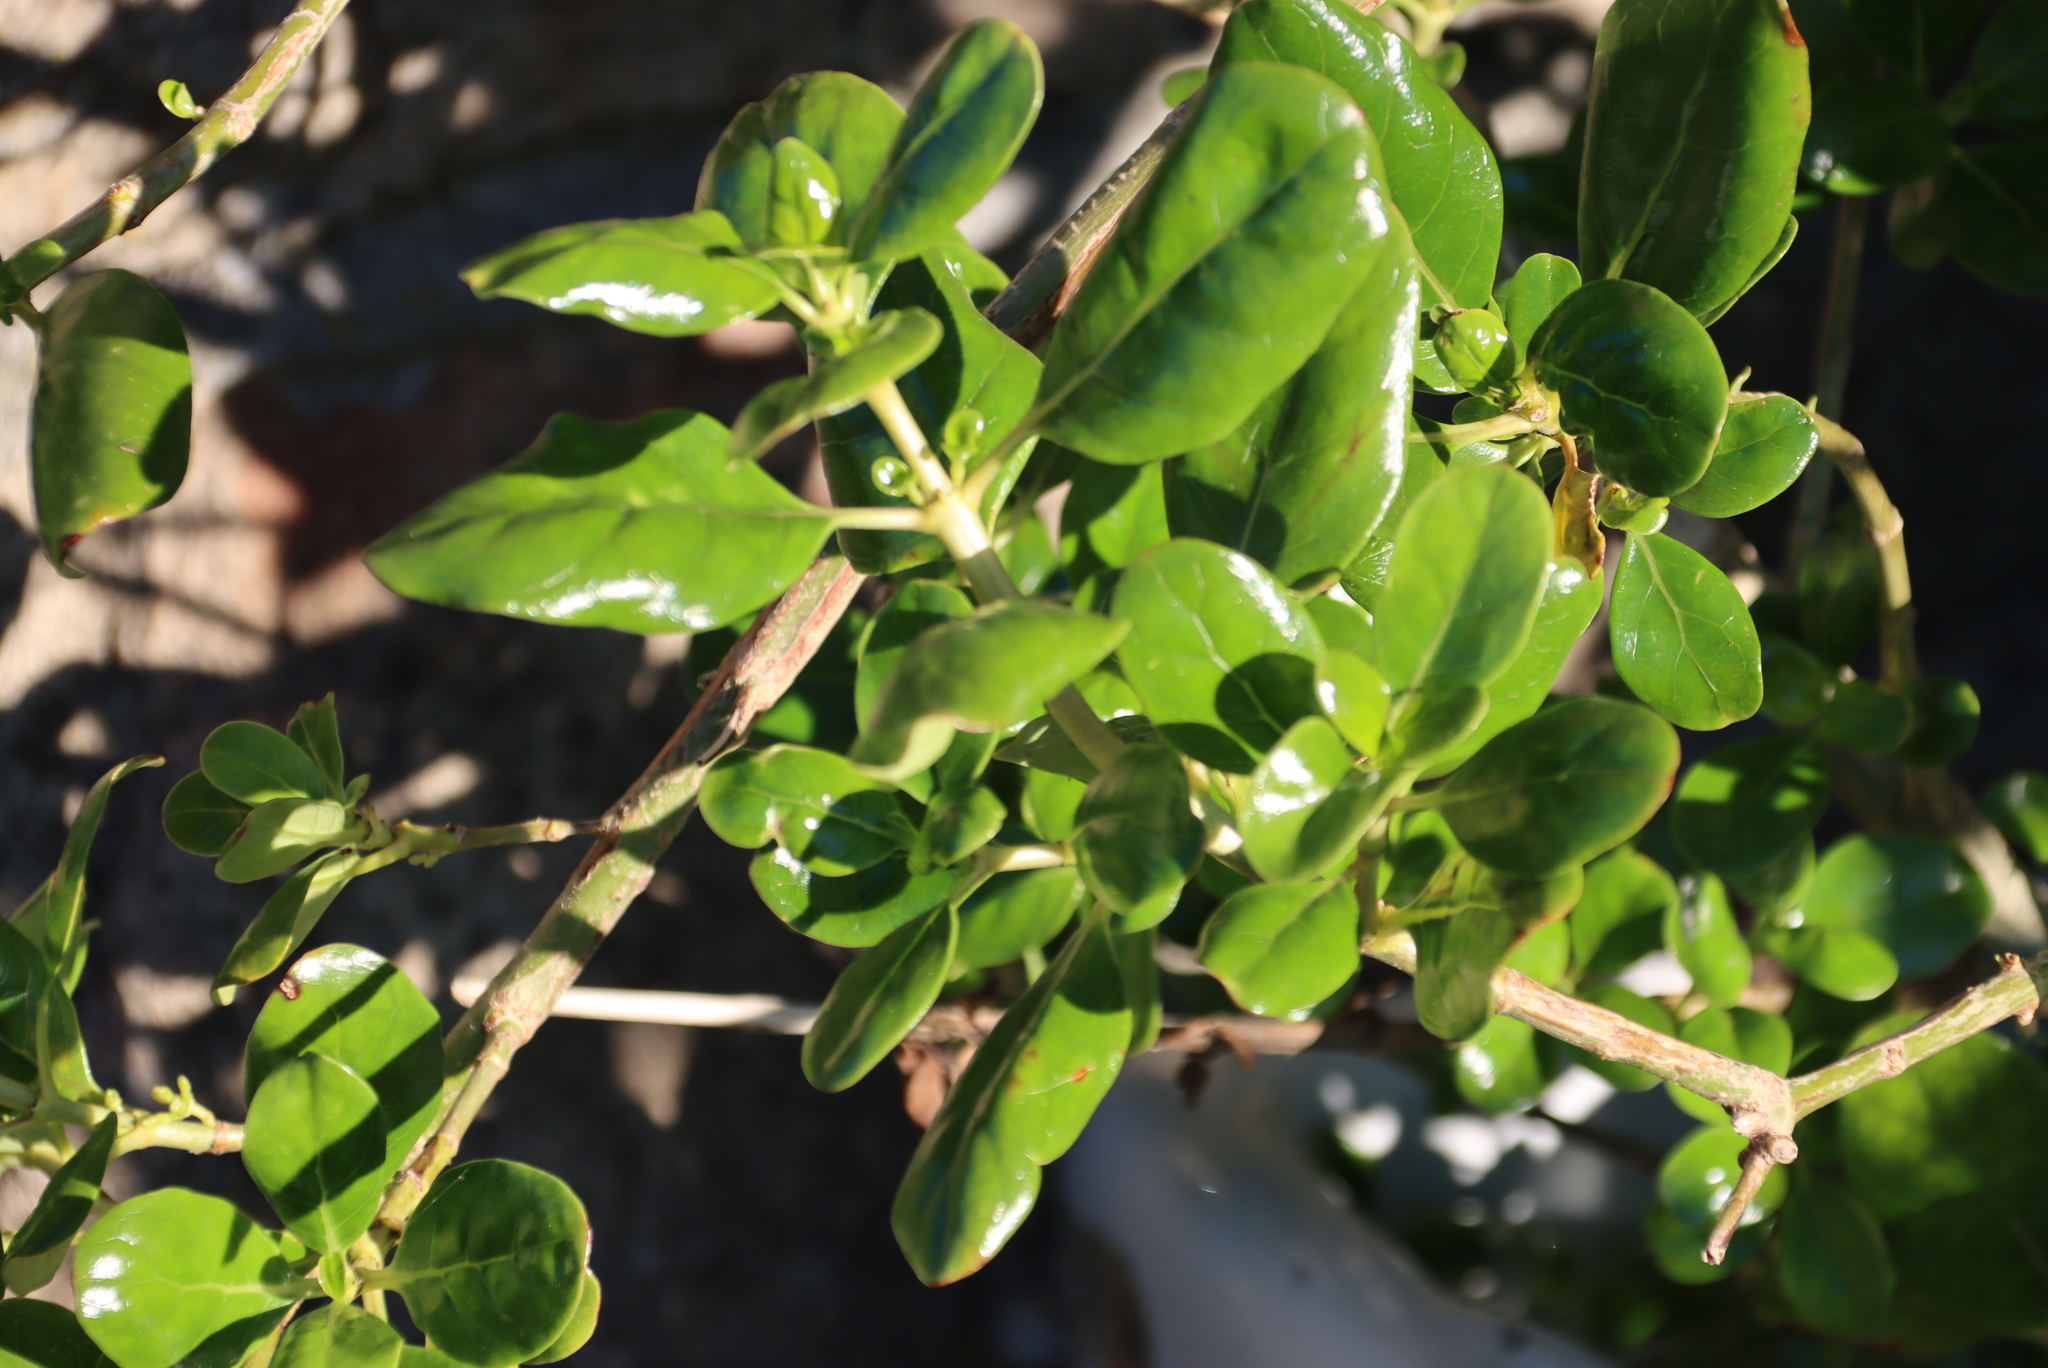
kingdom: Plantae
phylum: Tracheophyta
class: Magnoliopsida
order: Gentianales
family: Rubiaceae
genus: Coprosma
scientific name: Coprosma repens
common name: Tree bedstraw
